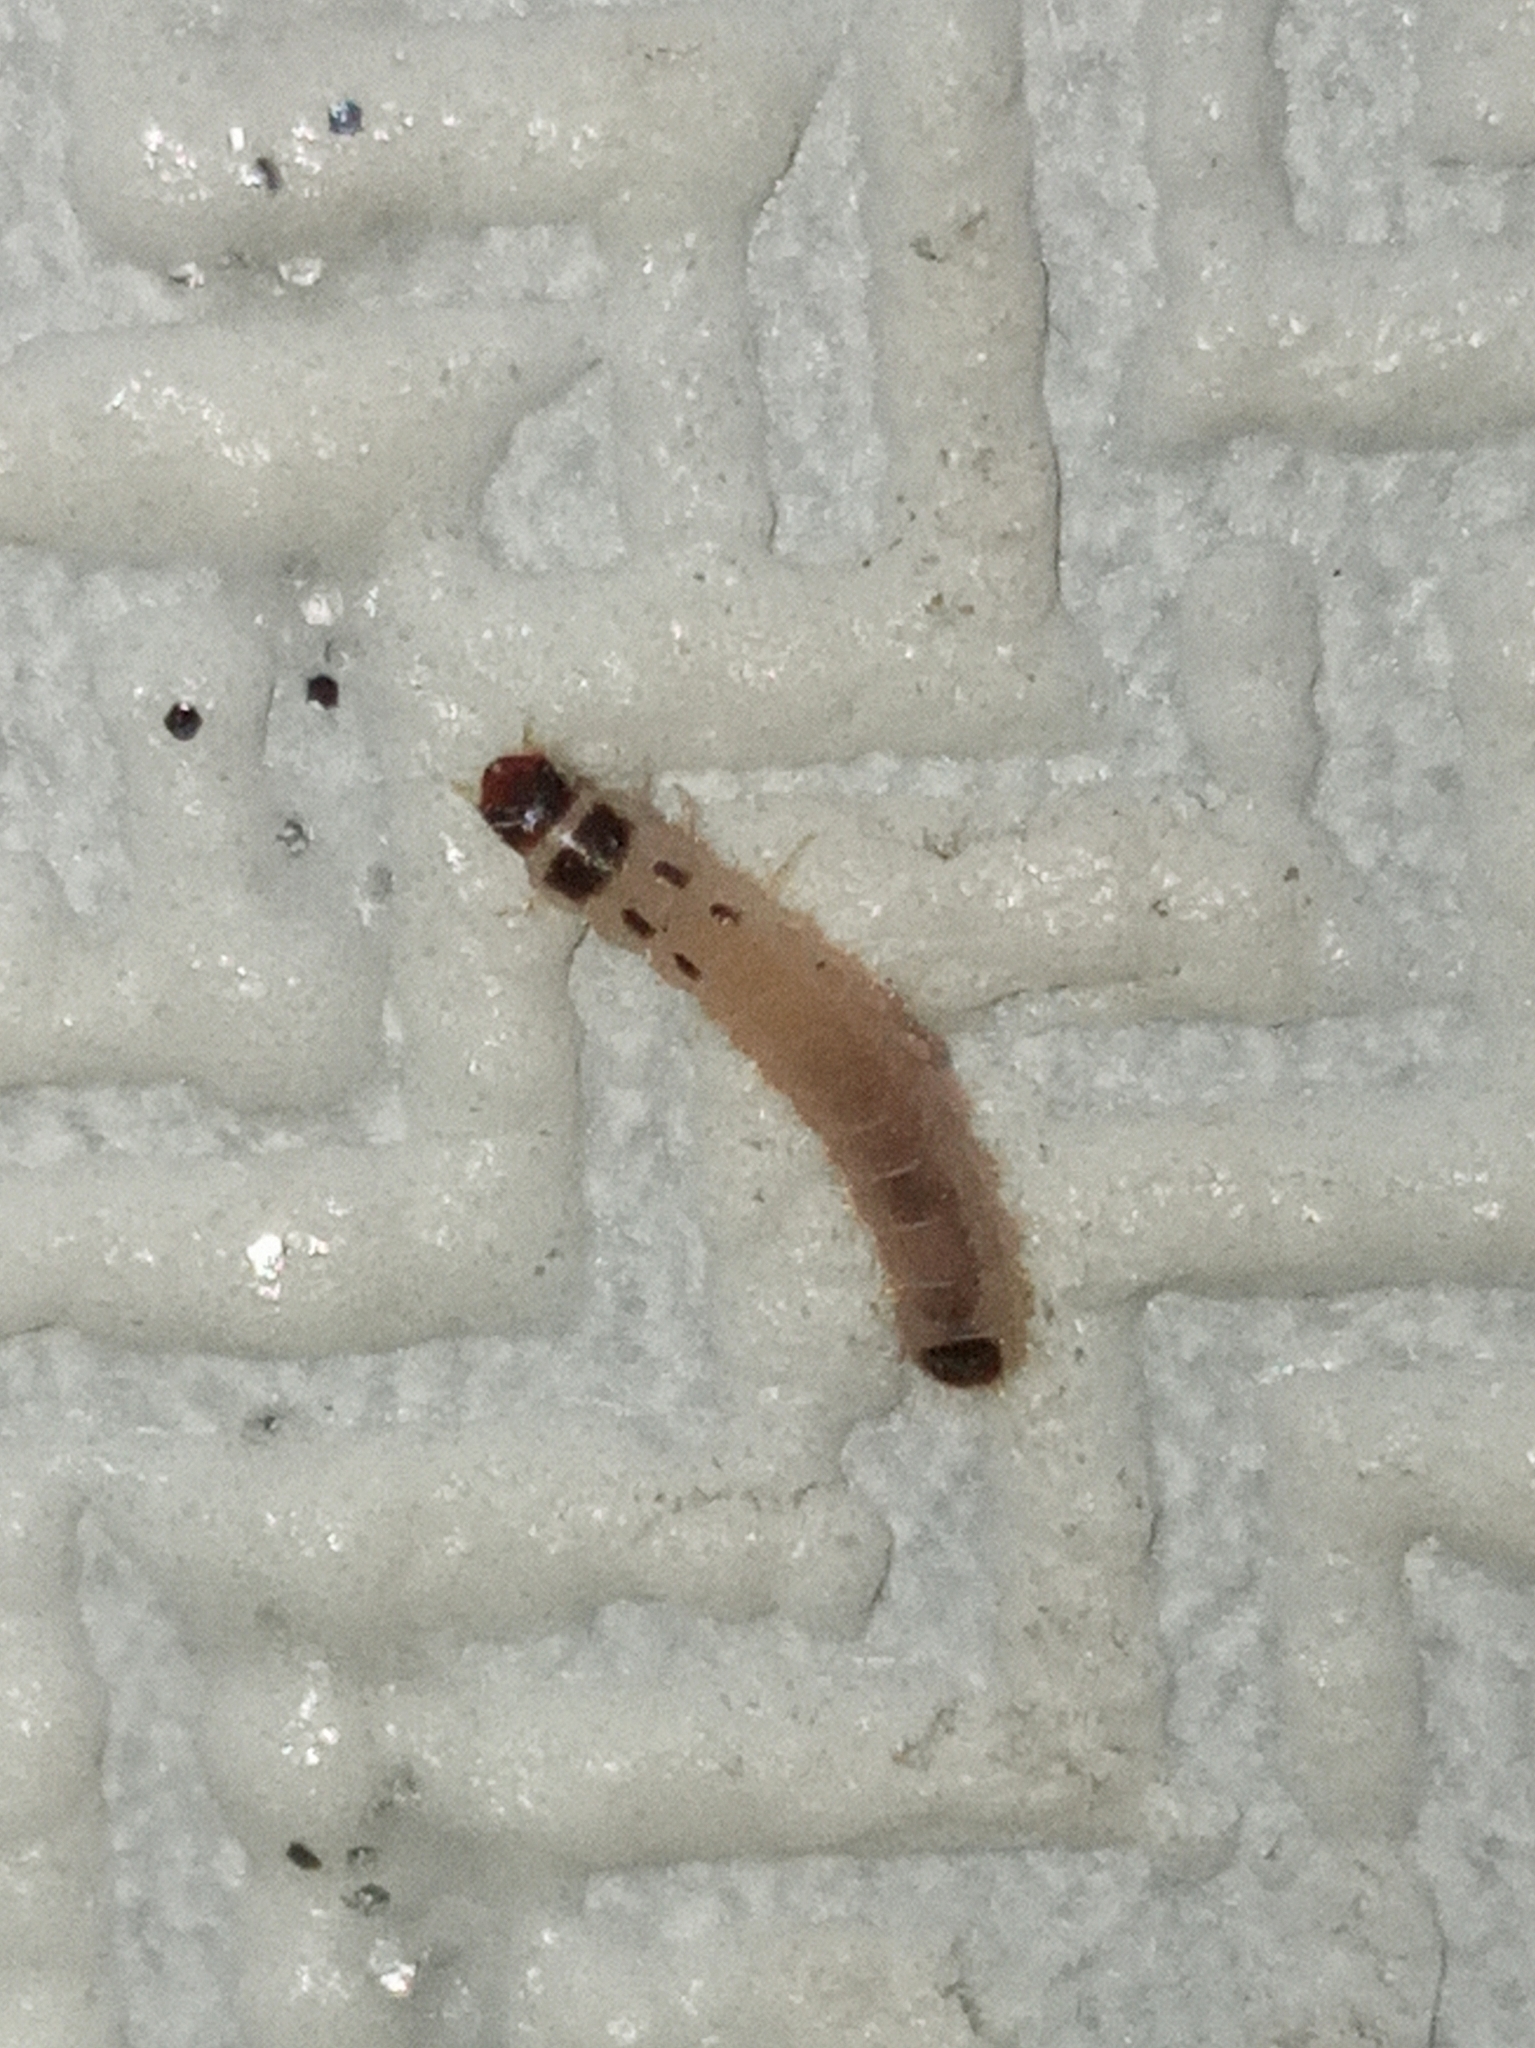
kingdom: Animalia
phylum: Arthropoda
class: Insecta
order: Lepidoptera
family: Pyralidae
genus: Ephestia
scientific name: Ephestia elutella
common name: Cacao moth
